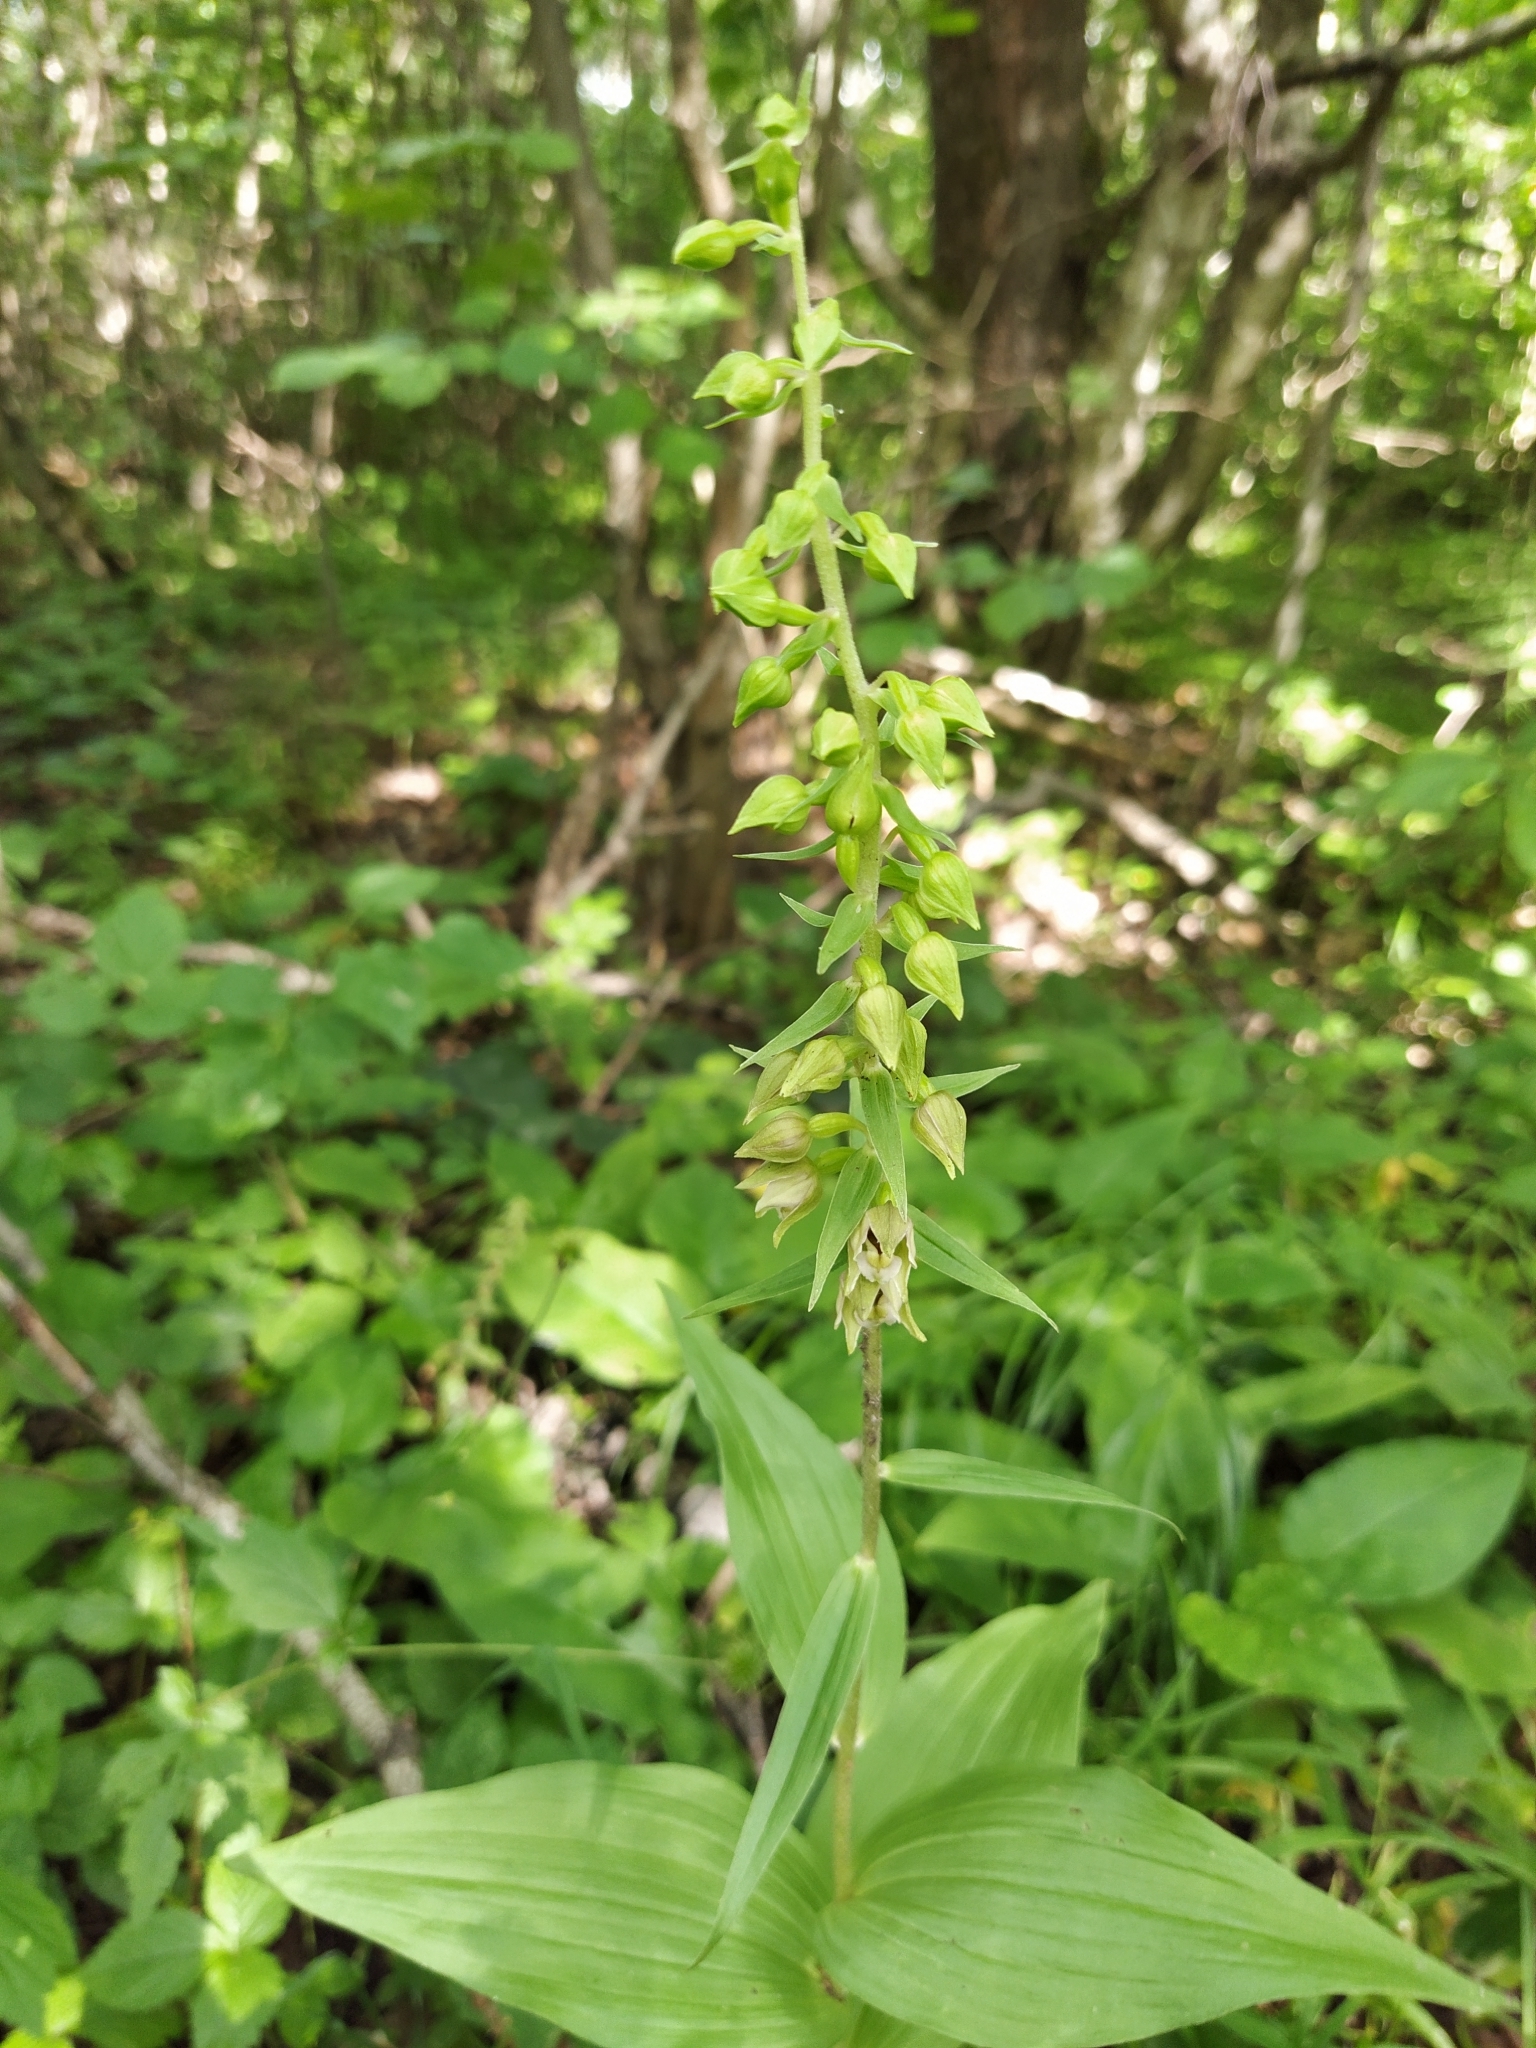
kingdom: Plantae
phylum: Tracheophyta
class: Liliopsida
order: Asparagales
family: Orchidaceae
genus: Epipactis
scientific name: Epipactis helleborine
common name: Broad-leaved helleborine
